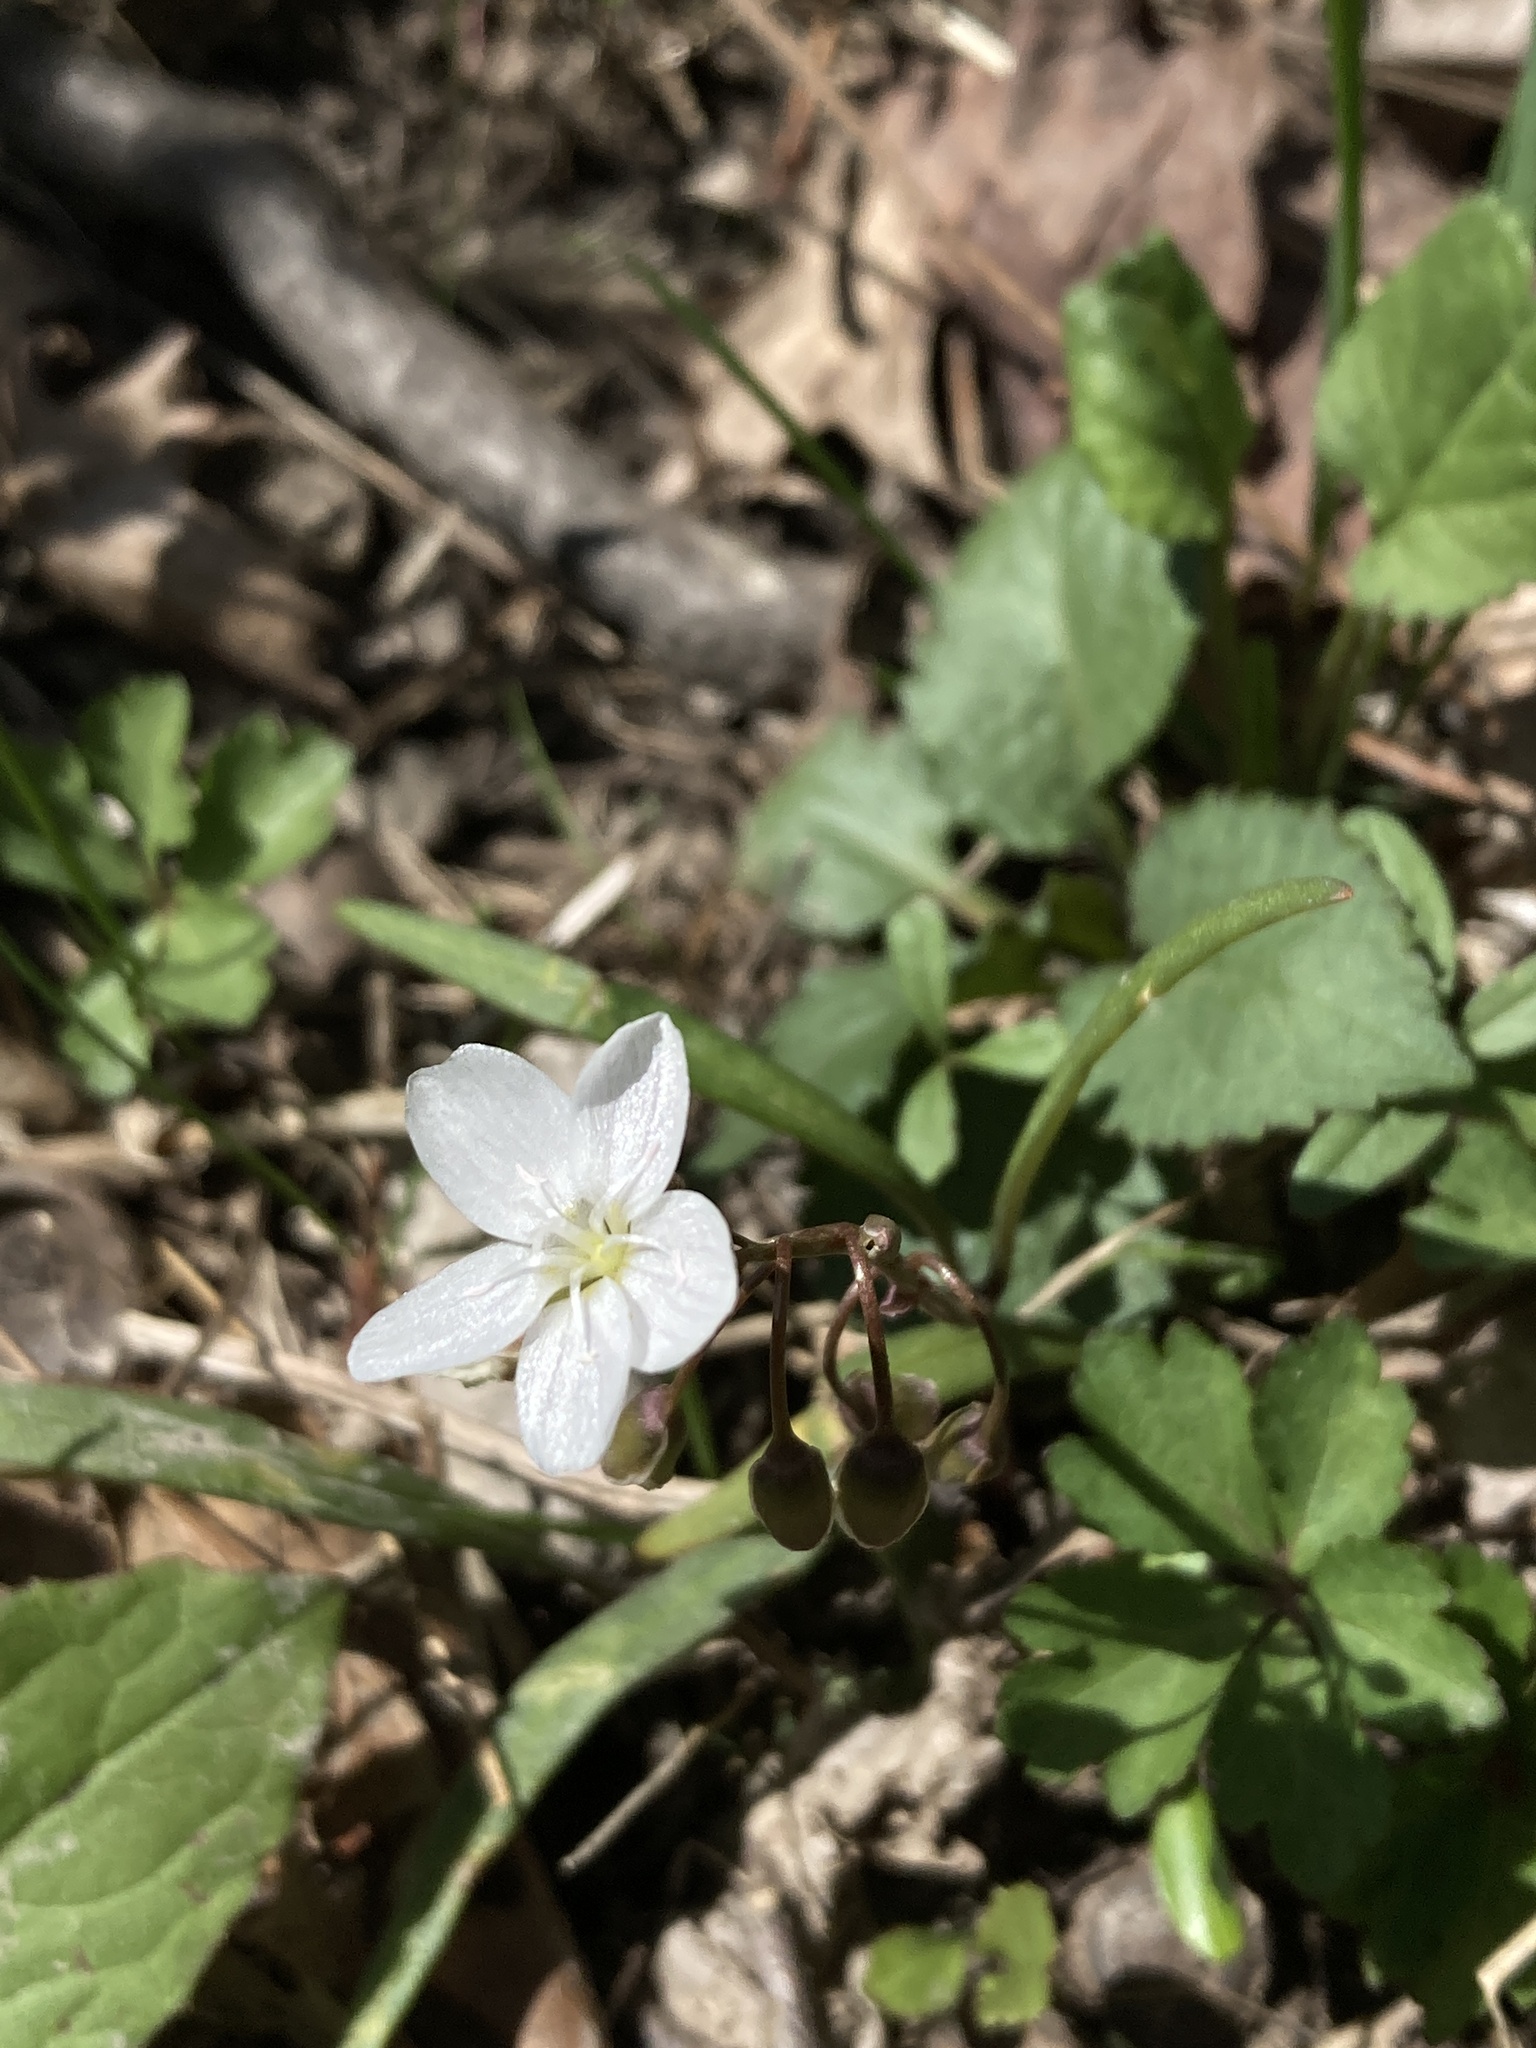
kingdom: Plantae
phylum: Tracheophyta
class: Magnoliopsida
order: Caryophyllales
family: Montiaceae
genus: Claytonia
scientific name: Claytonia virginica
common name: Virginia springbeauty
